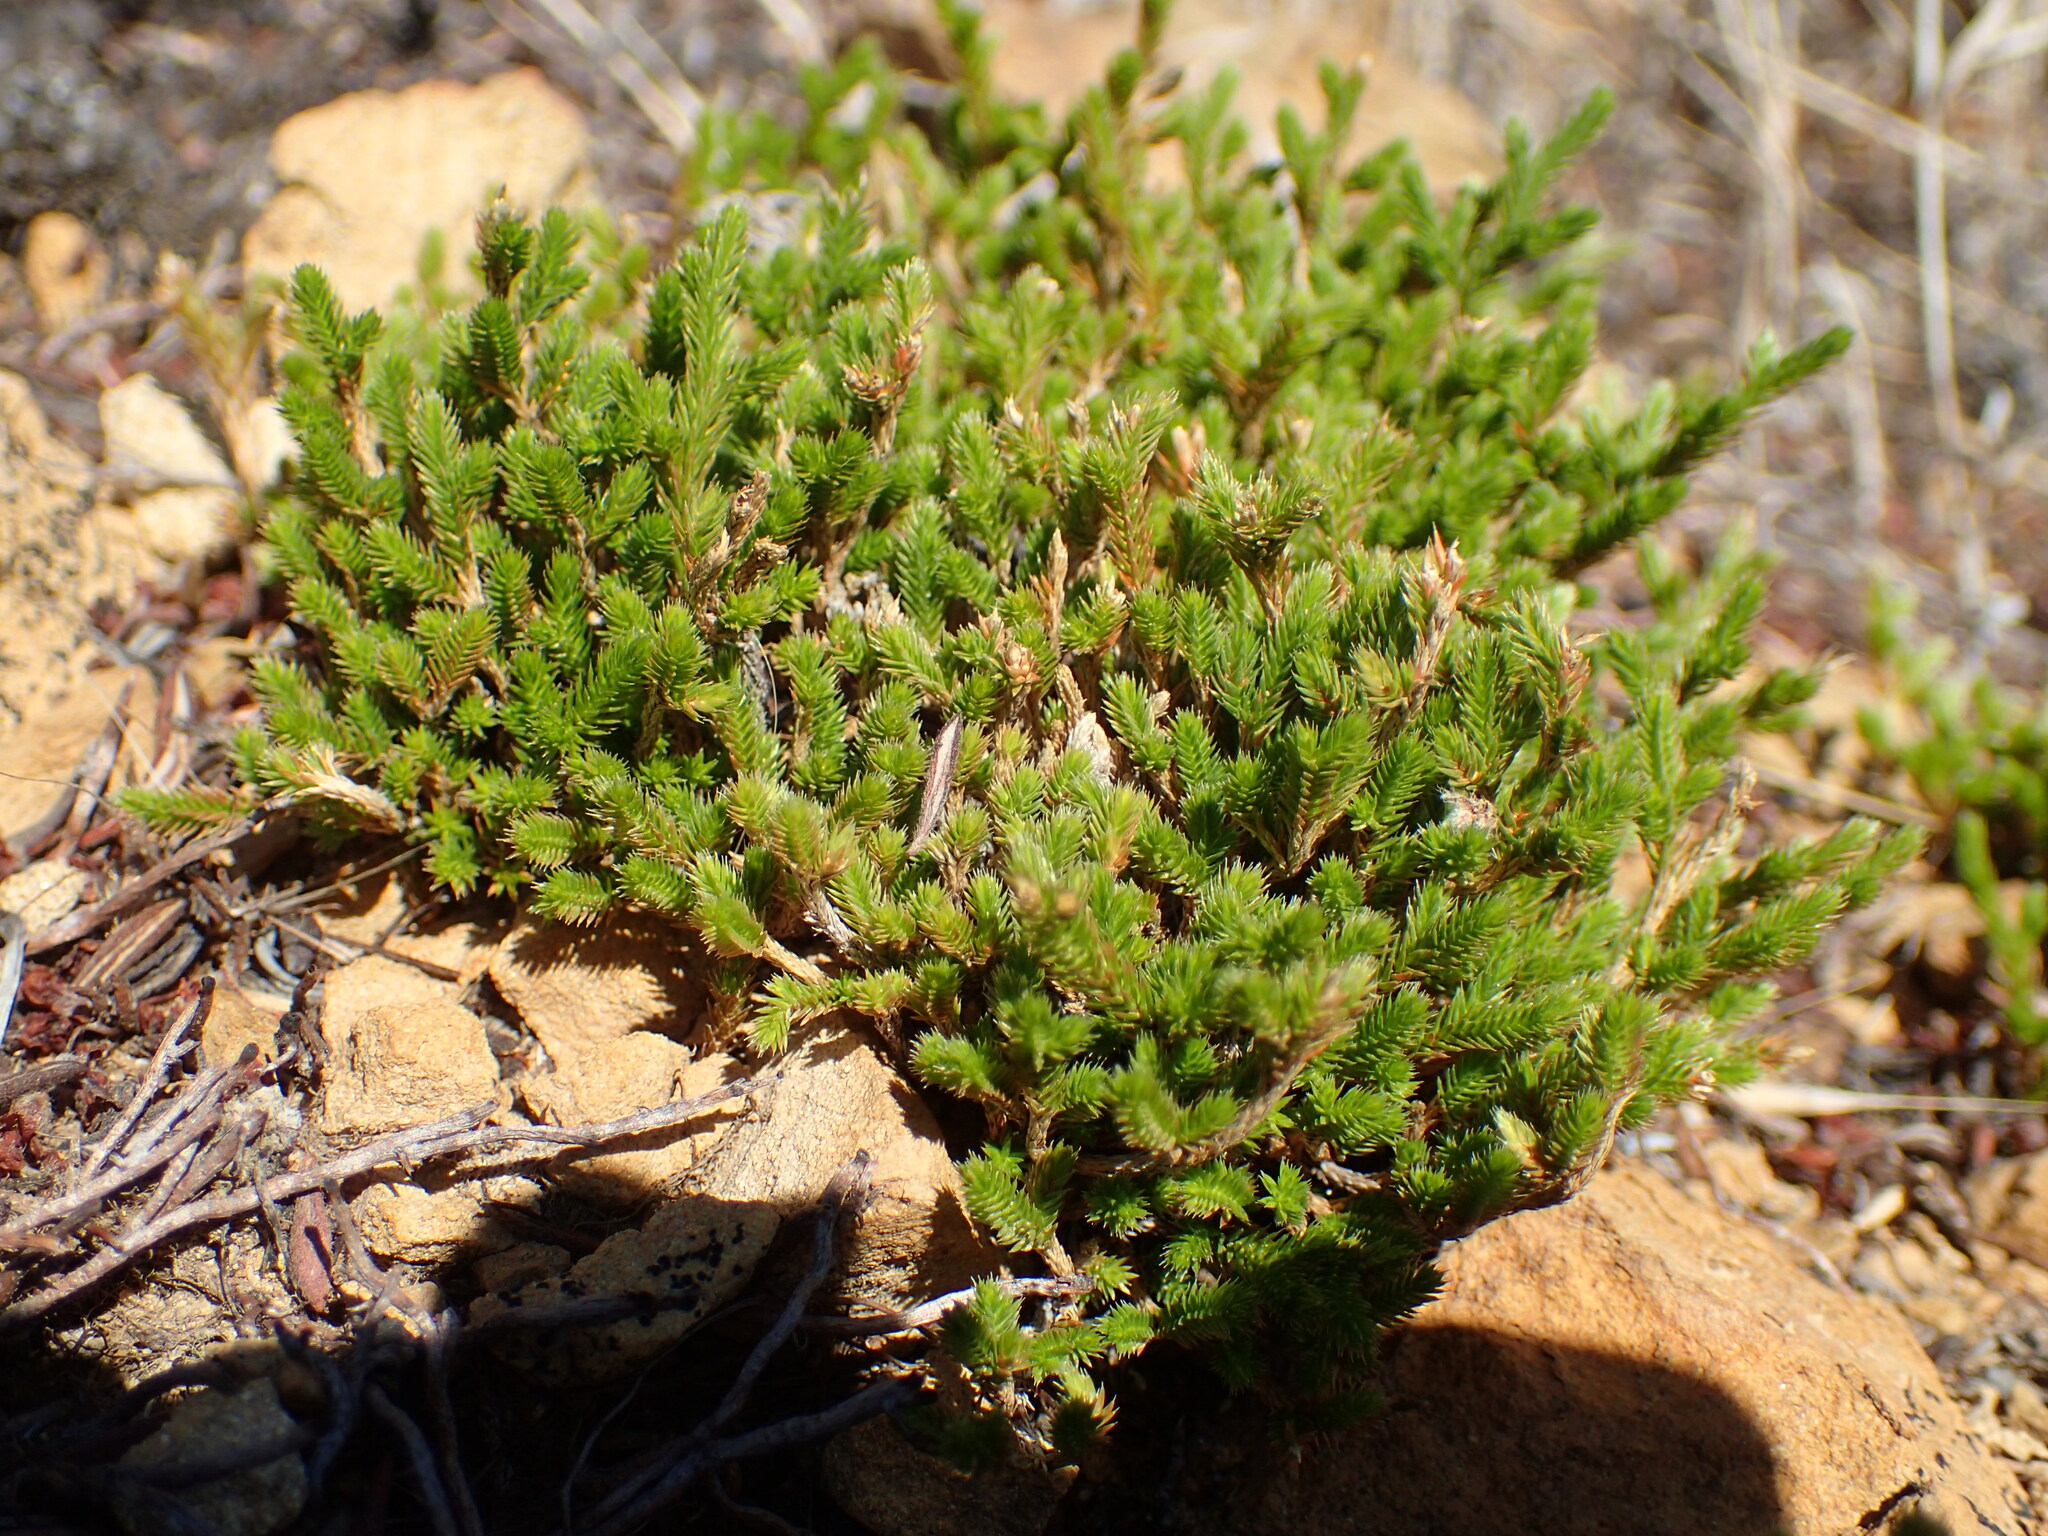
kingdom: Plantae
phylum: Tracheophyta
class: Lycopodiopsida
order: Selaginellales
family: Selaginellaceae
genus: Selaginella
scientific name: Selaginella bigelovii
